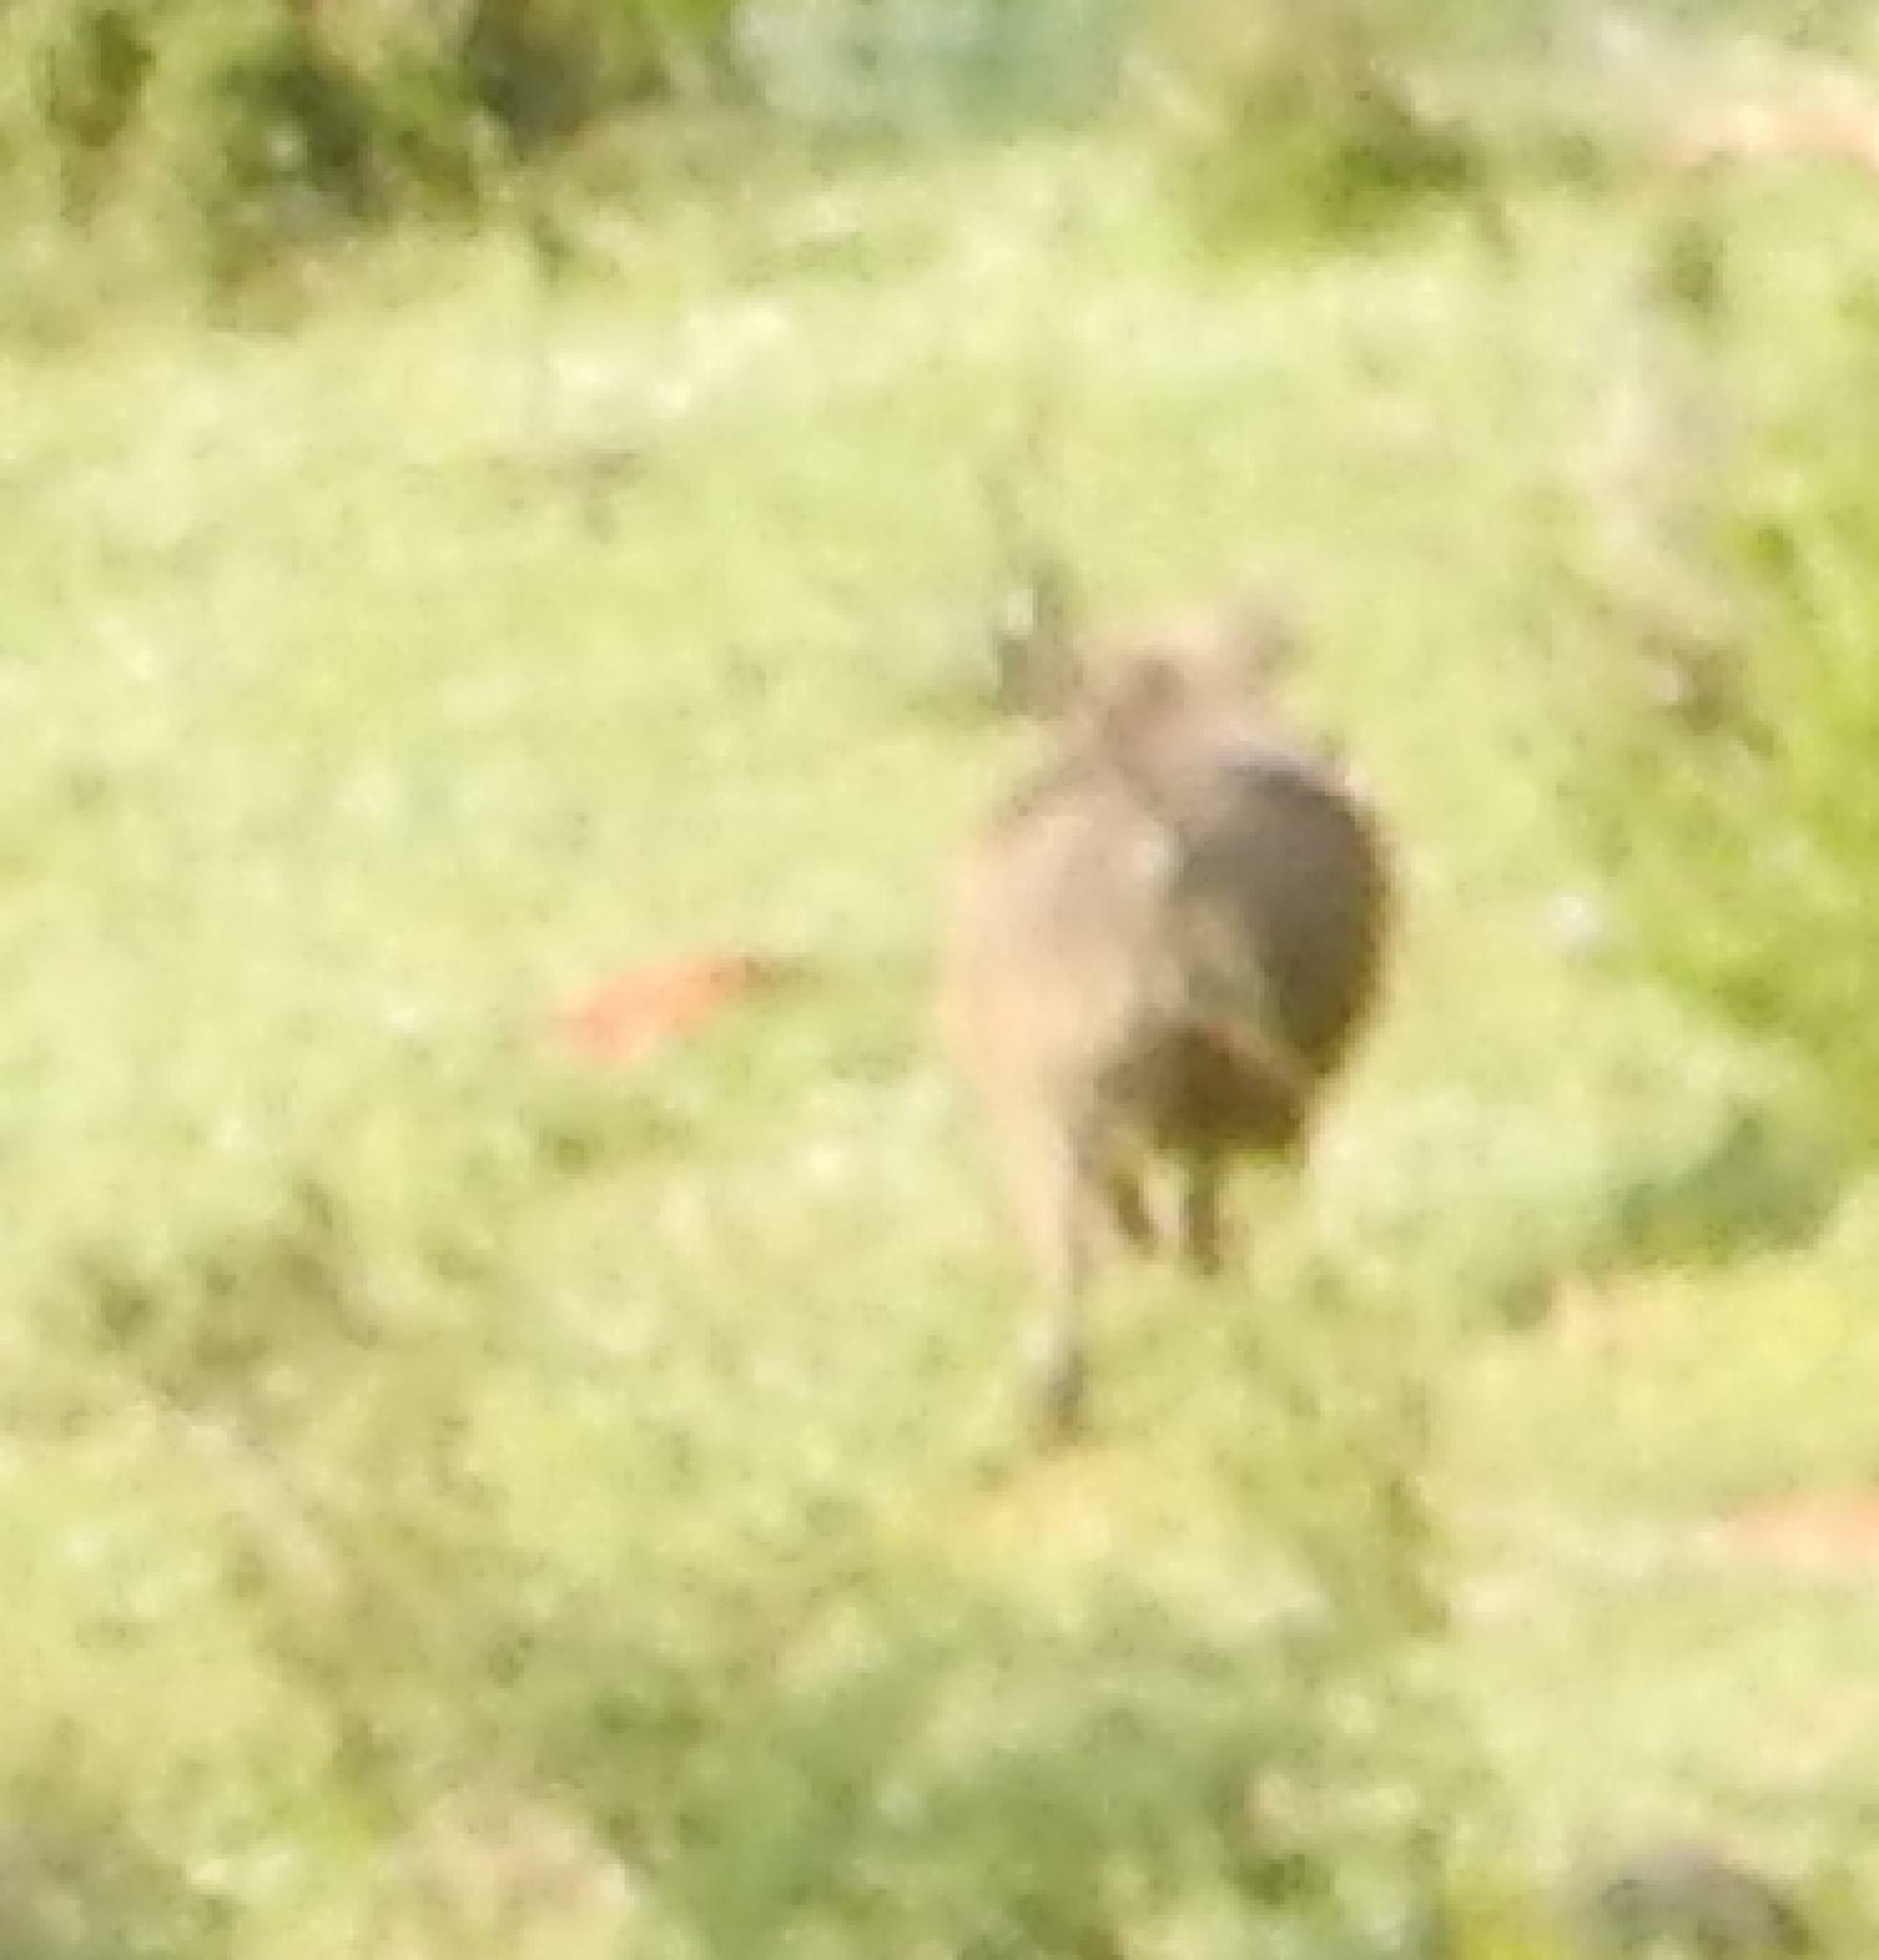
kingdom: Animalia
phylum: Chordata
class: Mammalia
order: Artiodactyla
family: Suidae
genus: Phacochoerus
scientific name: Phacochoerus africanus
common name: Common warthog
